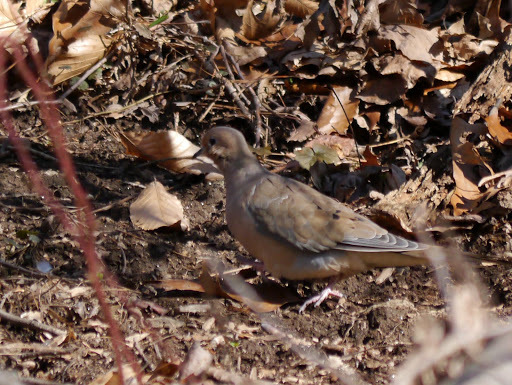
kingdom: Animalia
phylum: Chordata
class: Aves
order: Columbiformes
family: Columbidae
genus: Zenaida
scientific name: Zenaida macroura
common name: Mourning dove
